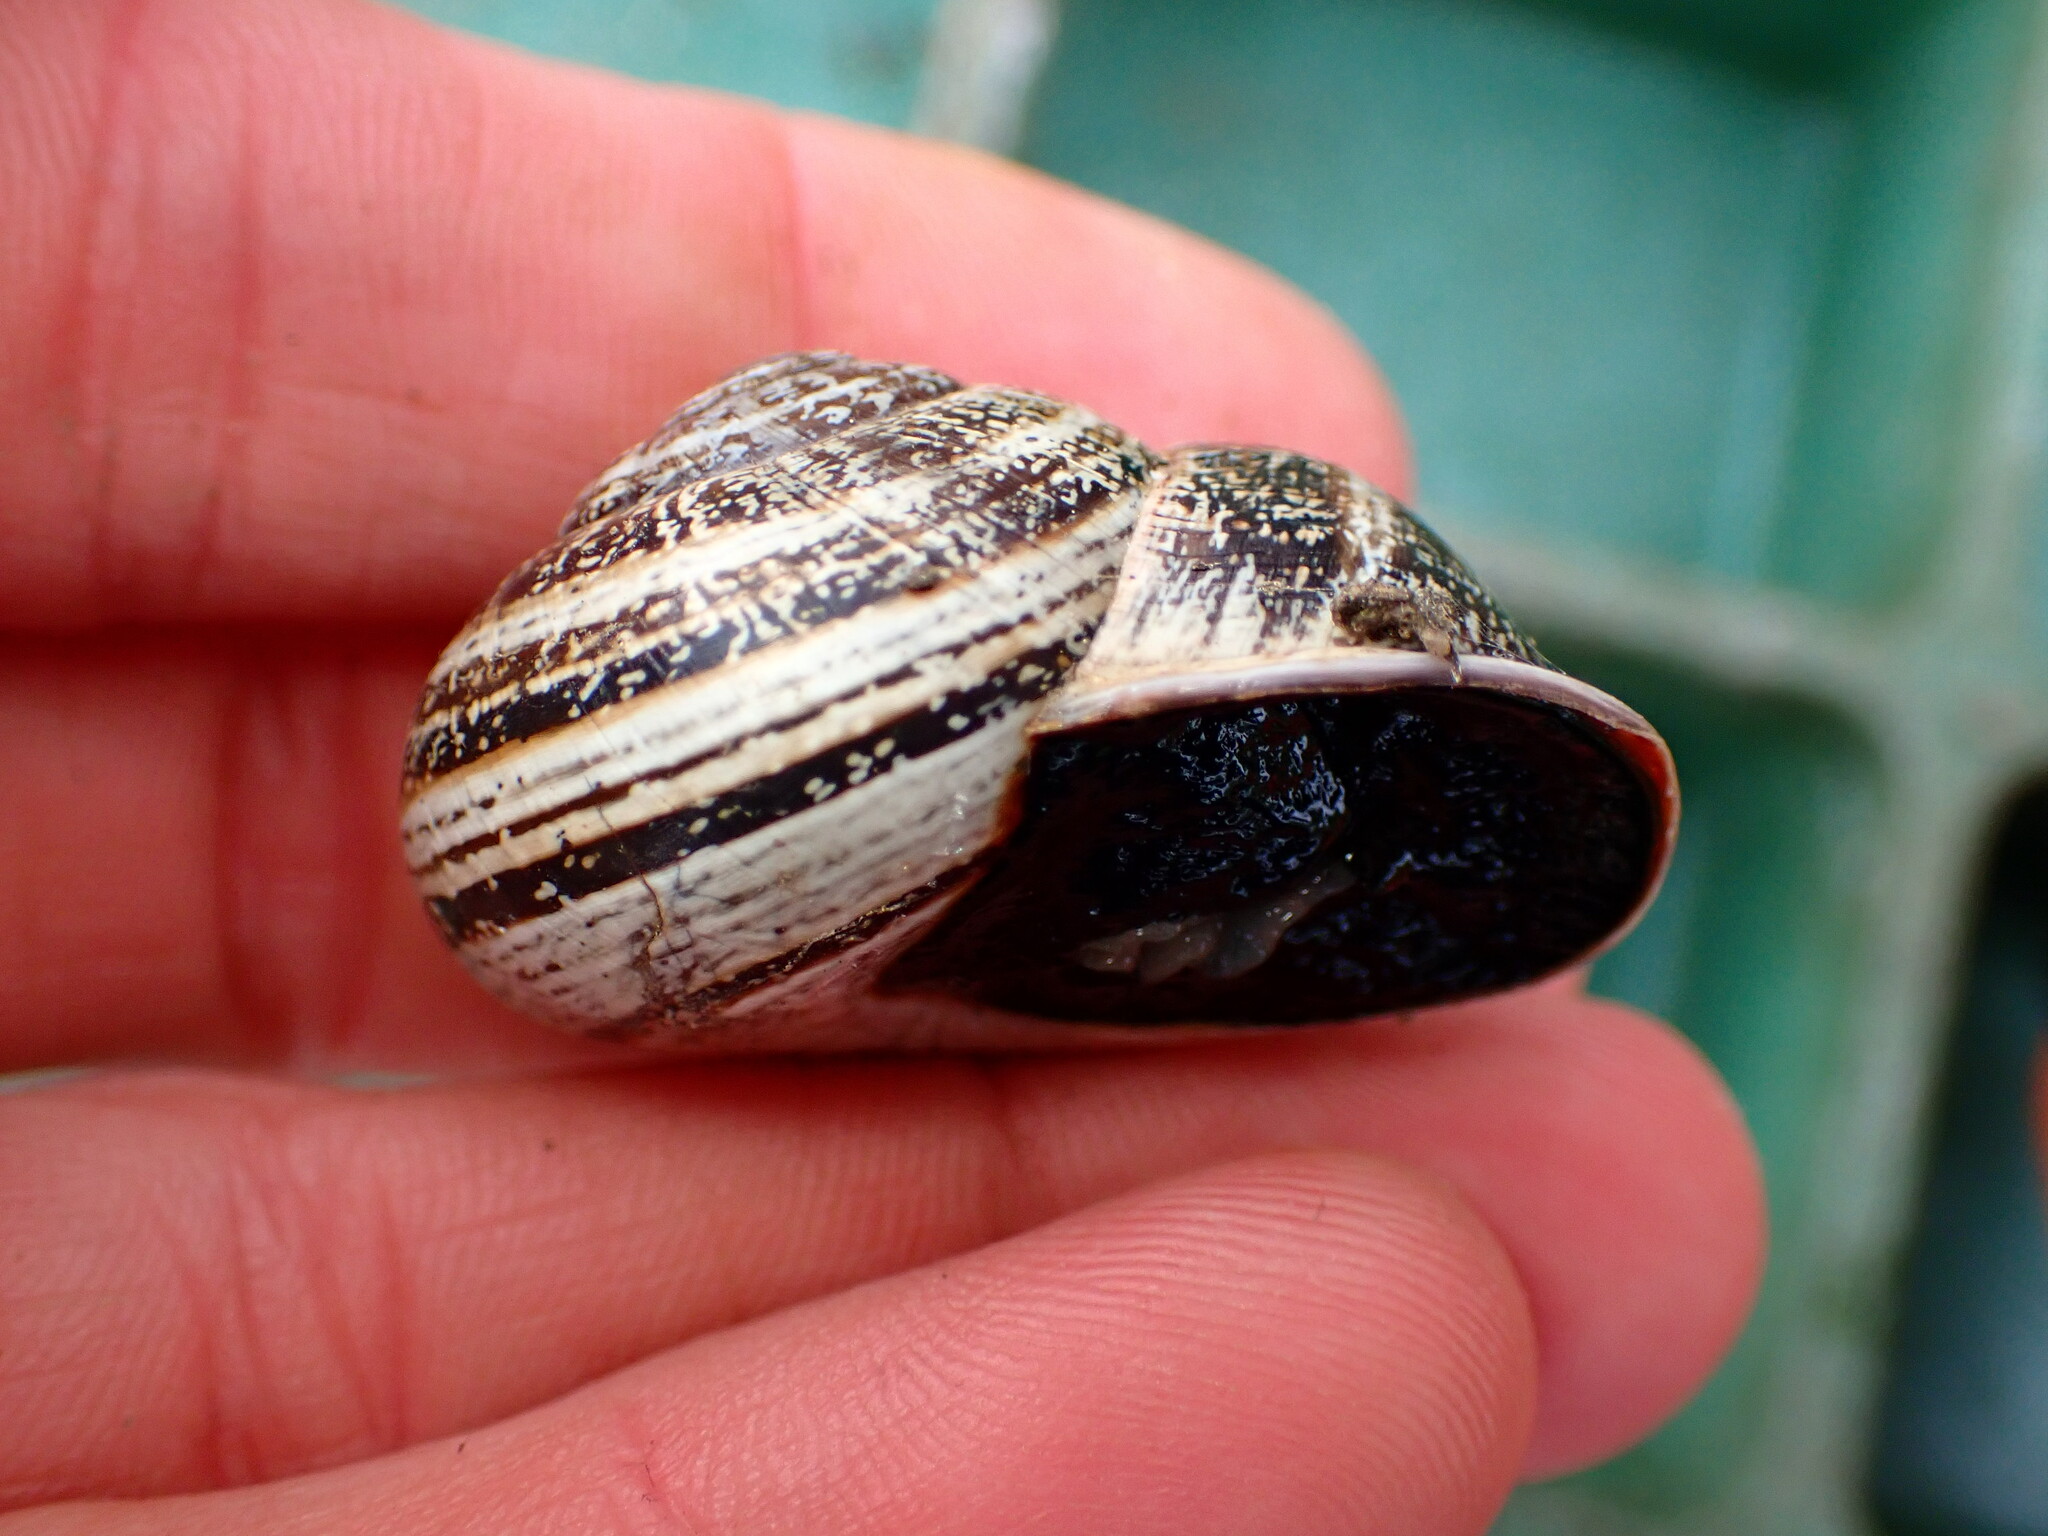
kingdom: Animalia
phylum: Mollusca
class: Gastropoda
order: Stylommatophora
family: Helicidae
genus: Otala
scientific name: Otala lactea
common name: Milk snail
